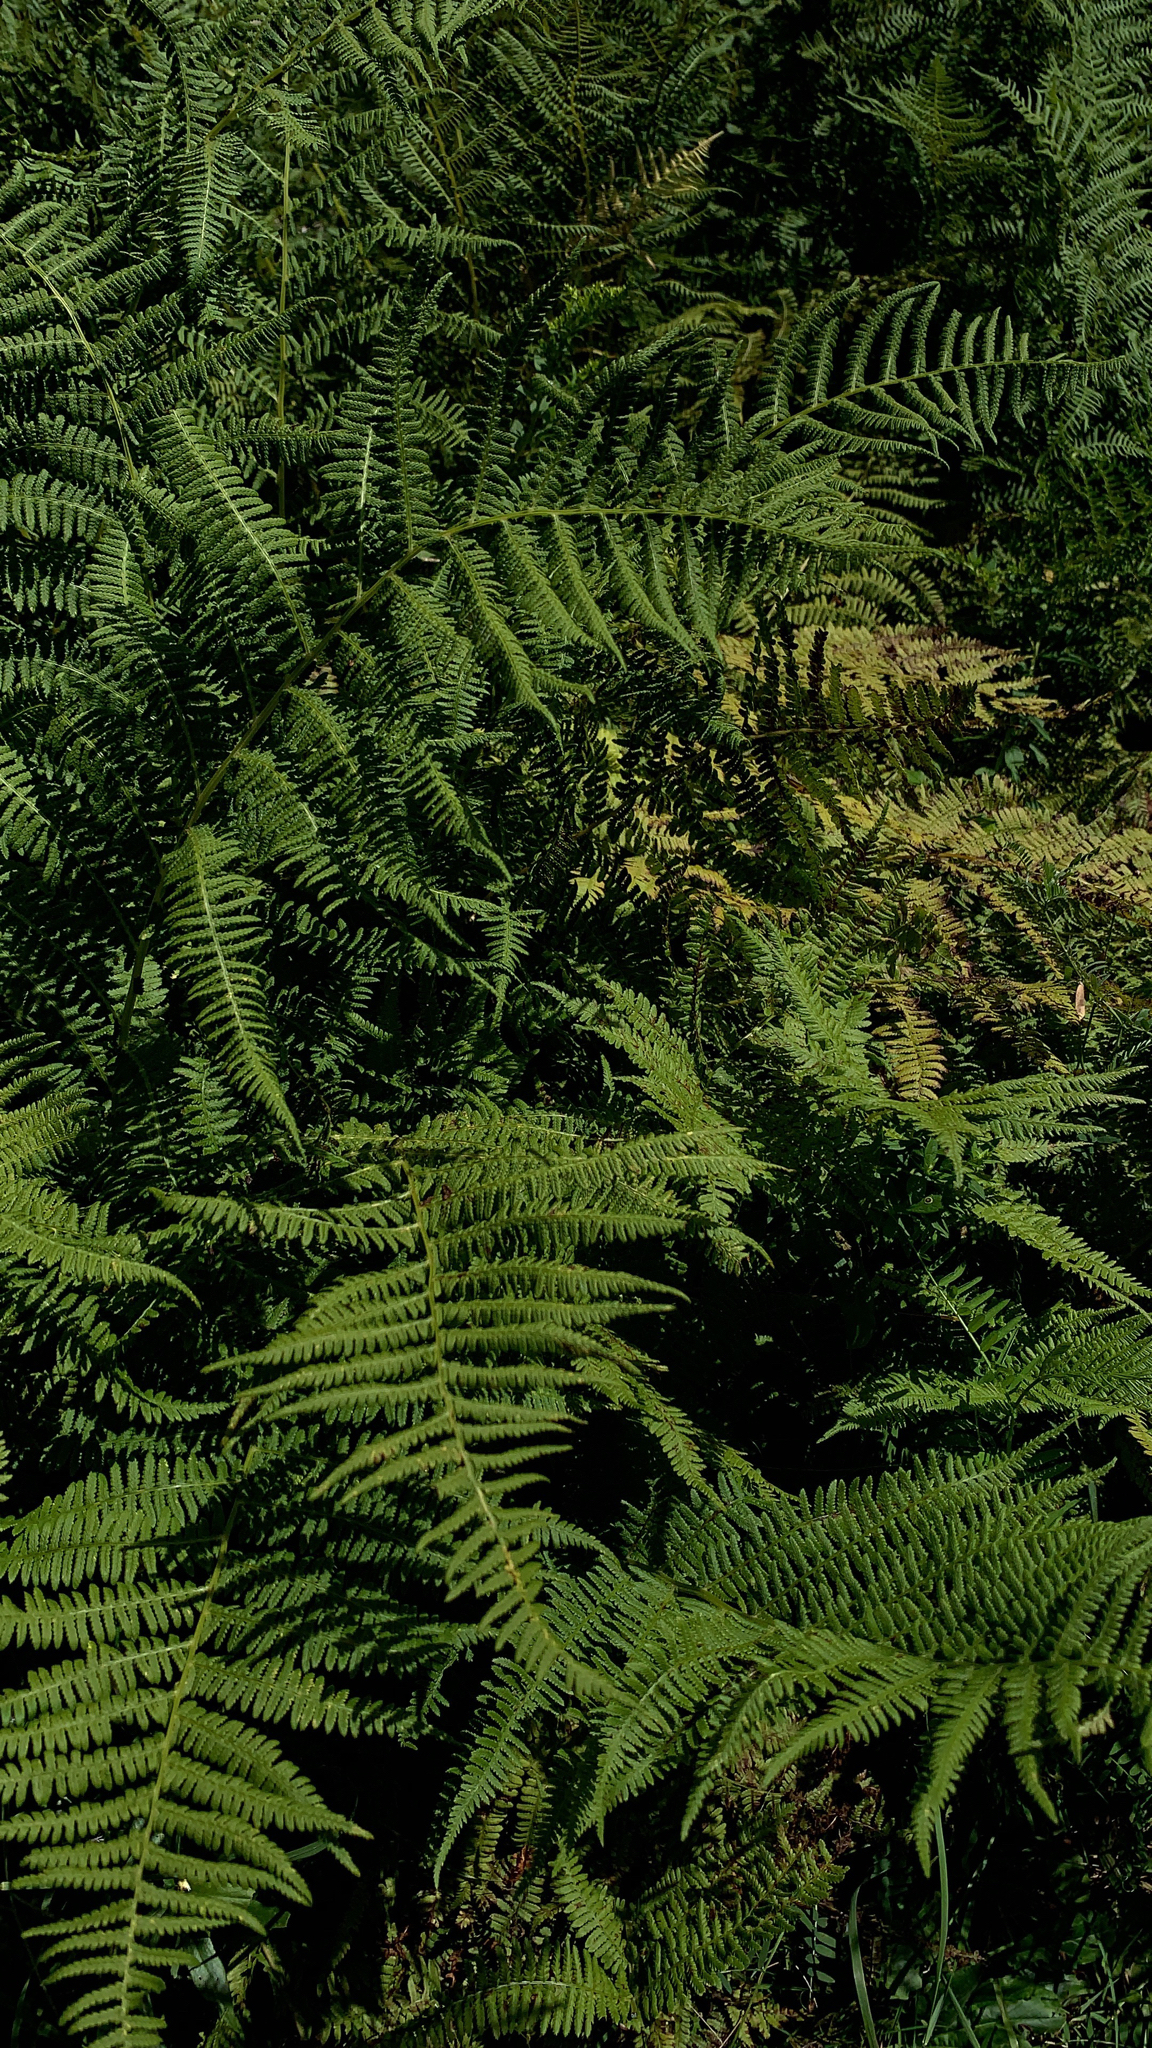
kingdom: Plantae
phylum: Tracheophyta
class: Polypodiopsida
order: Polypodiales
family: Thelypteridaceae
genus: Thelypteris
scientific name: Thelypteris palustris
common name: Marsh fern
